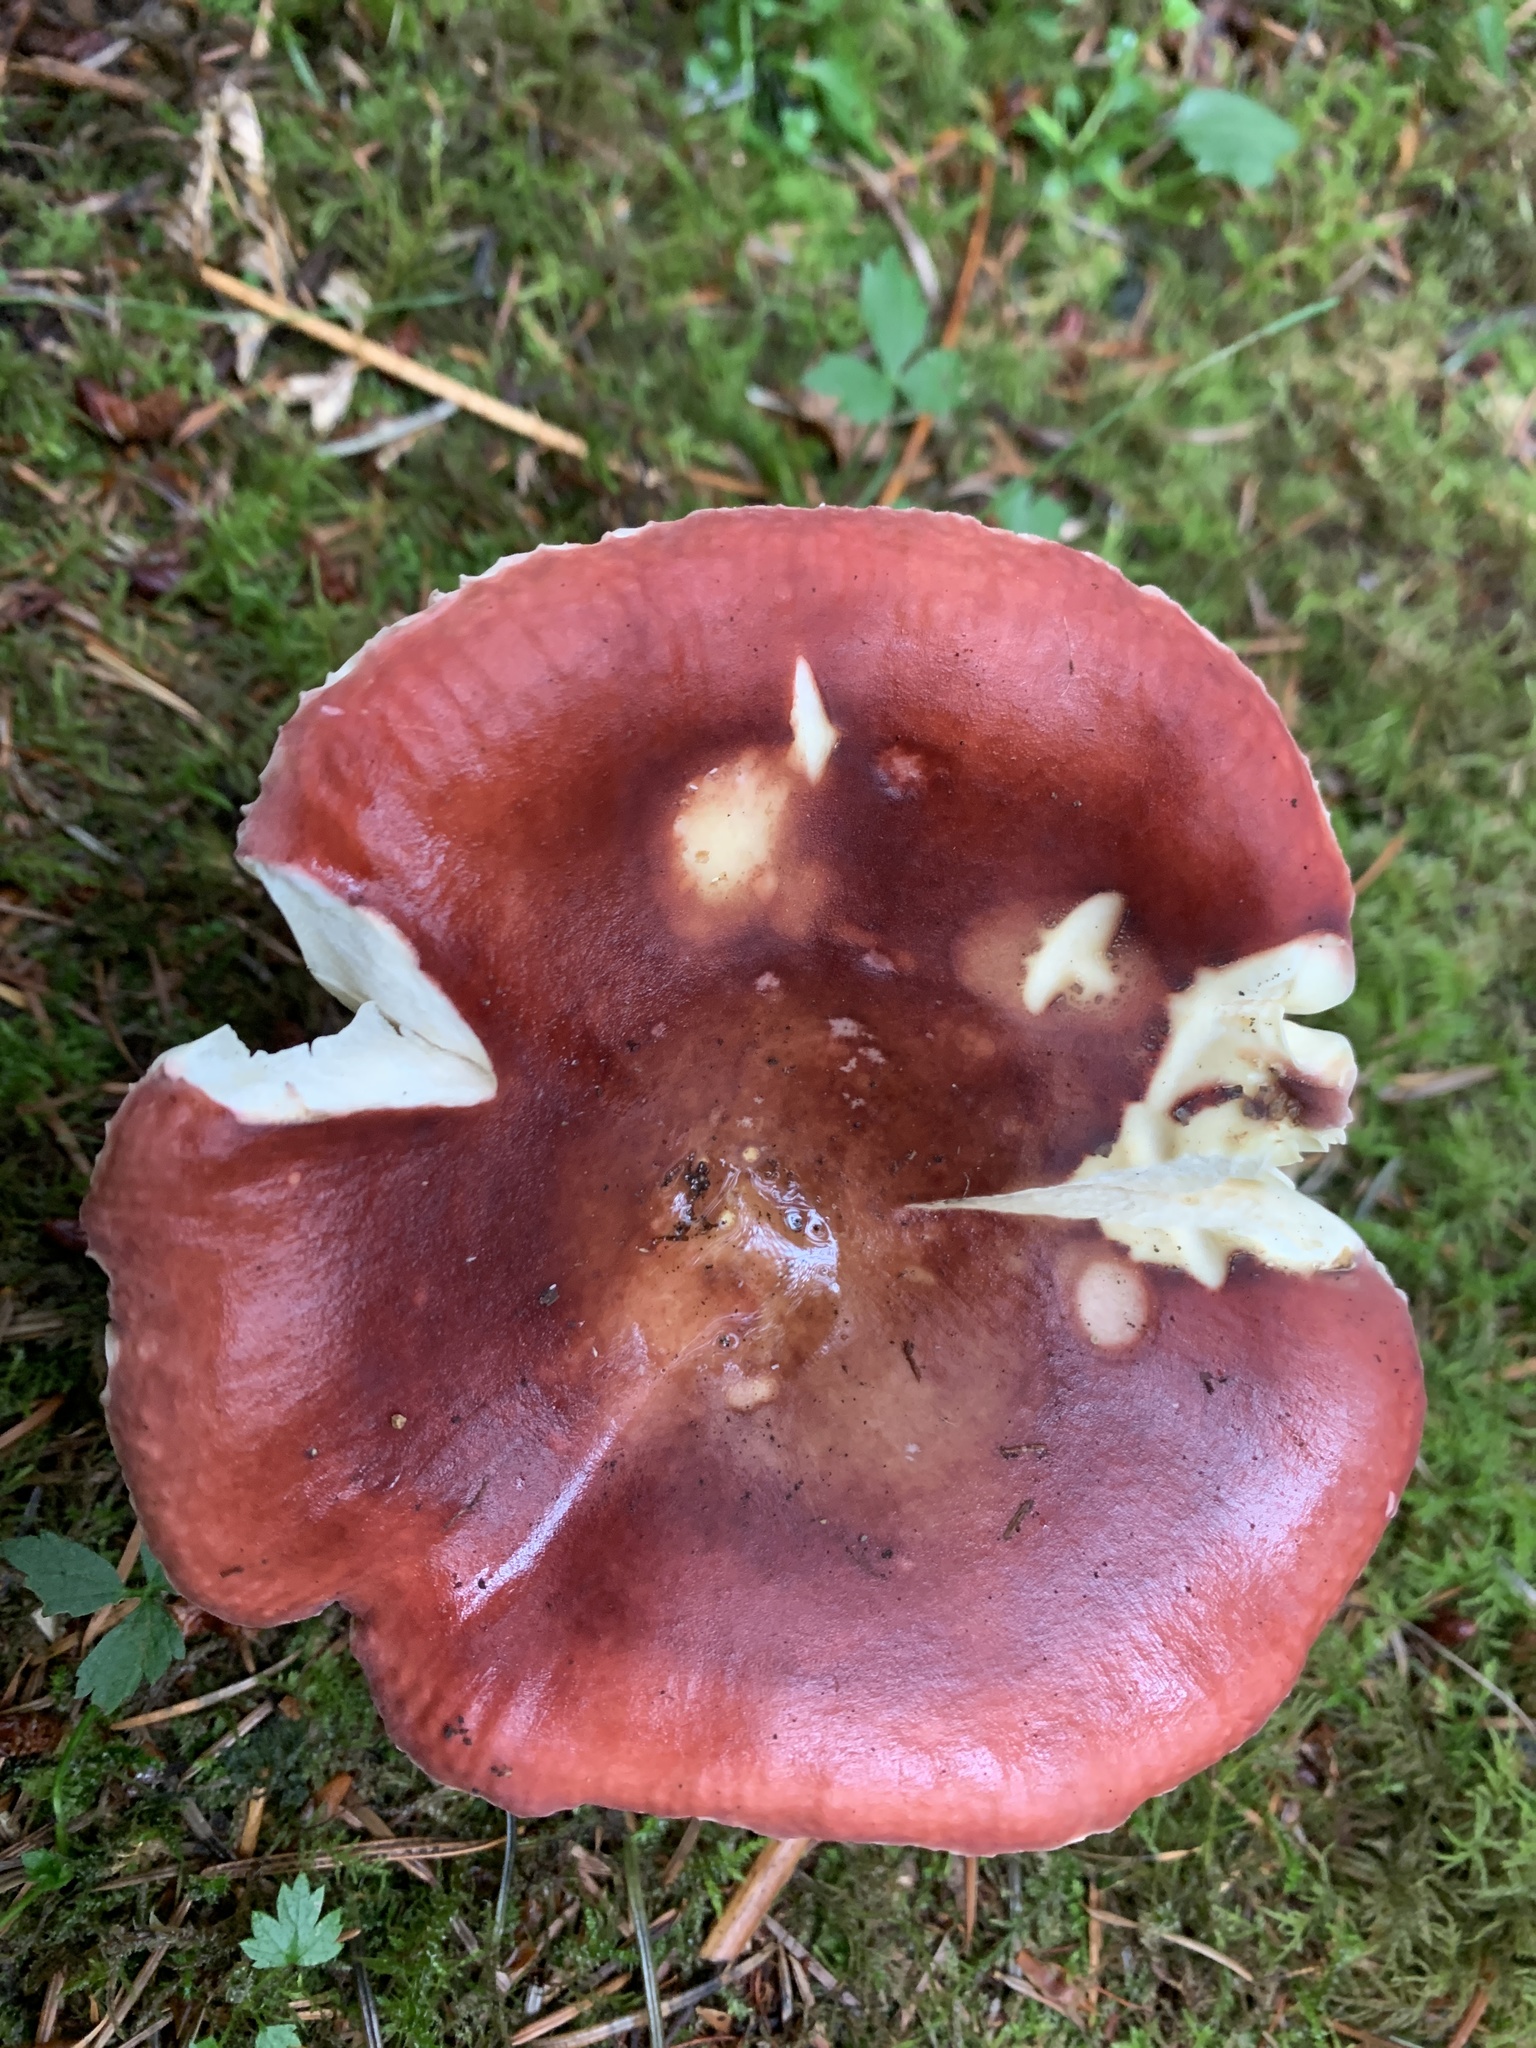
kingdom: Fungi
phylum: Basidiomycota
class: Agaricomycetes
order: Russulales
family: Russulaceae
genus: Russula
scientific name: Russula
